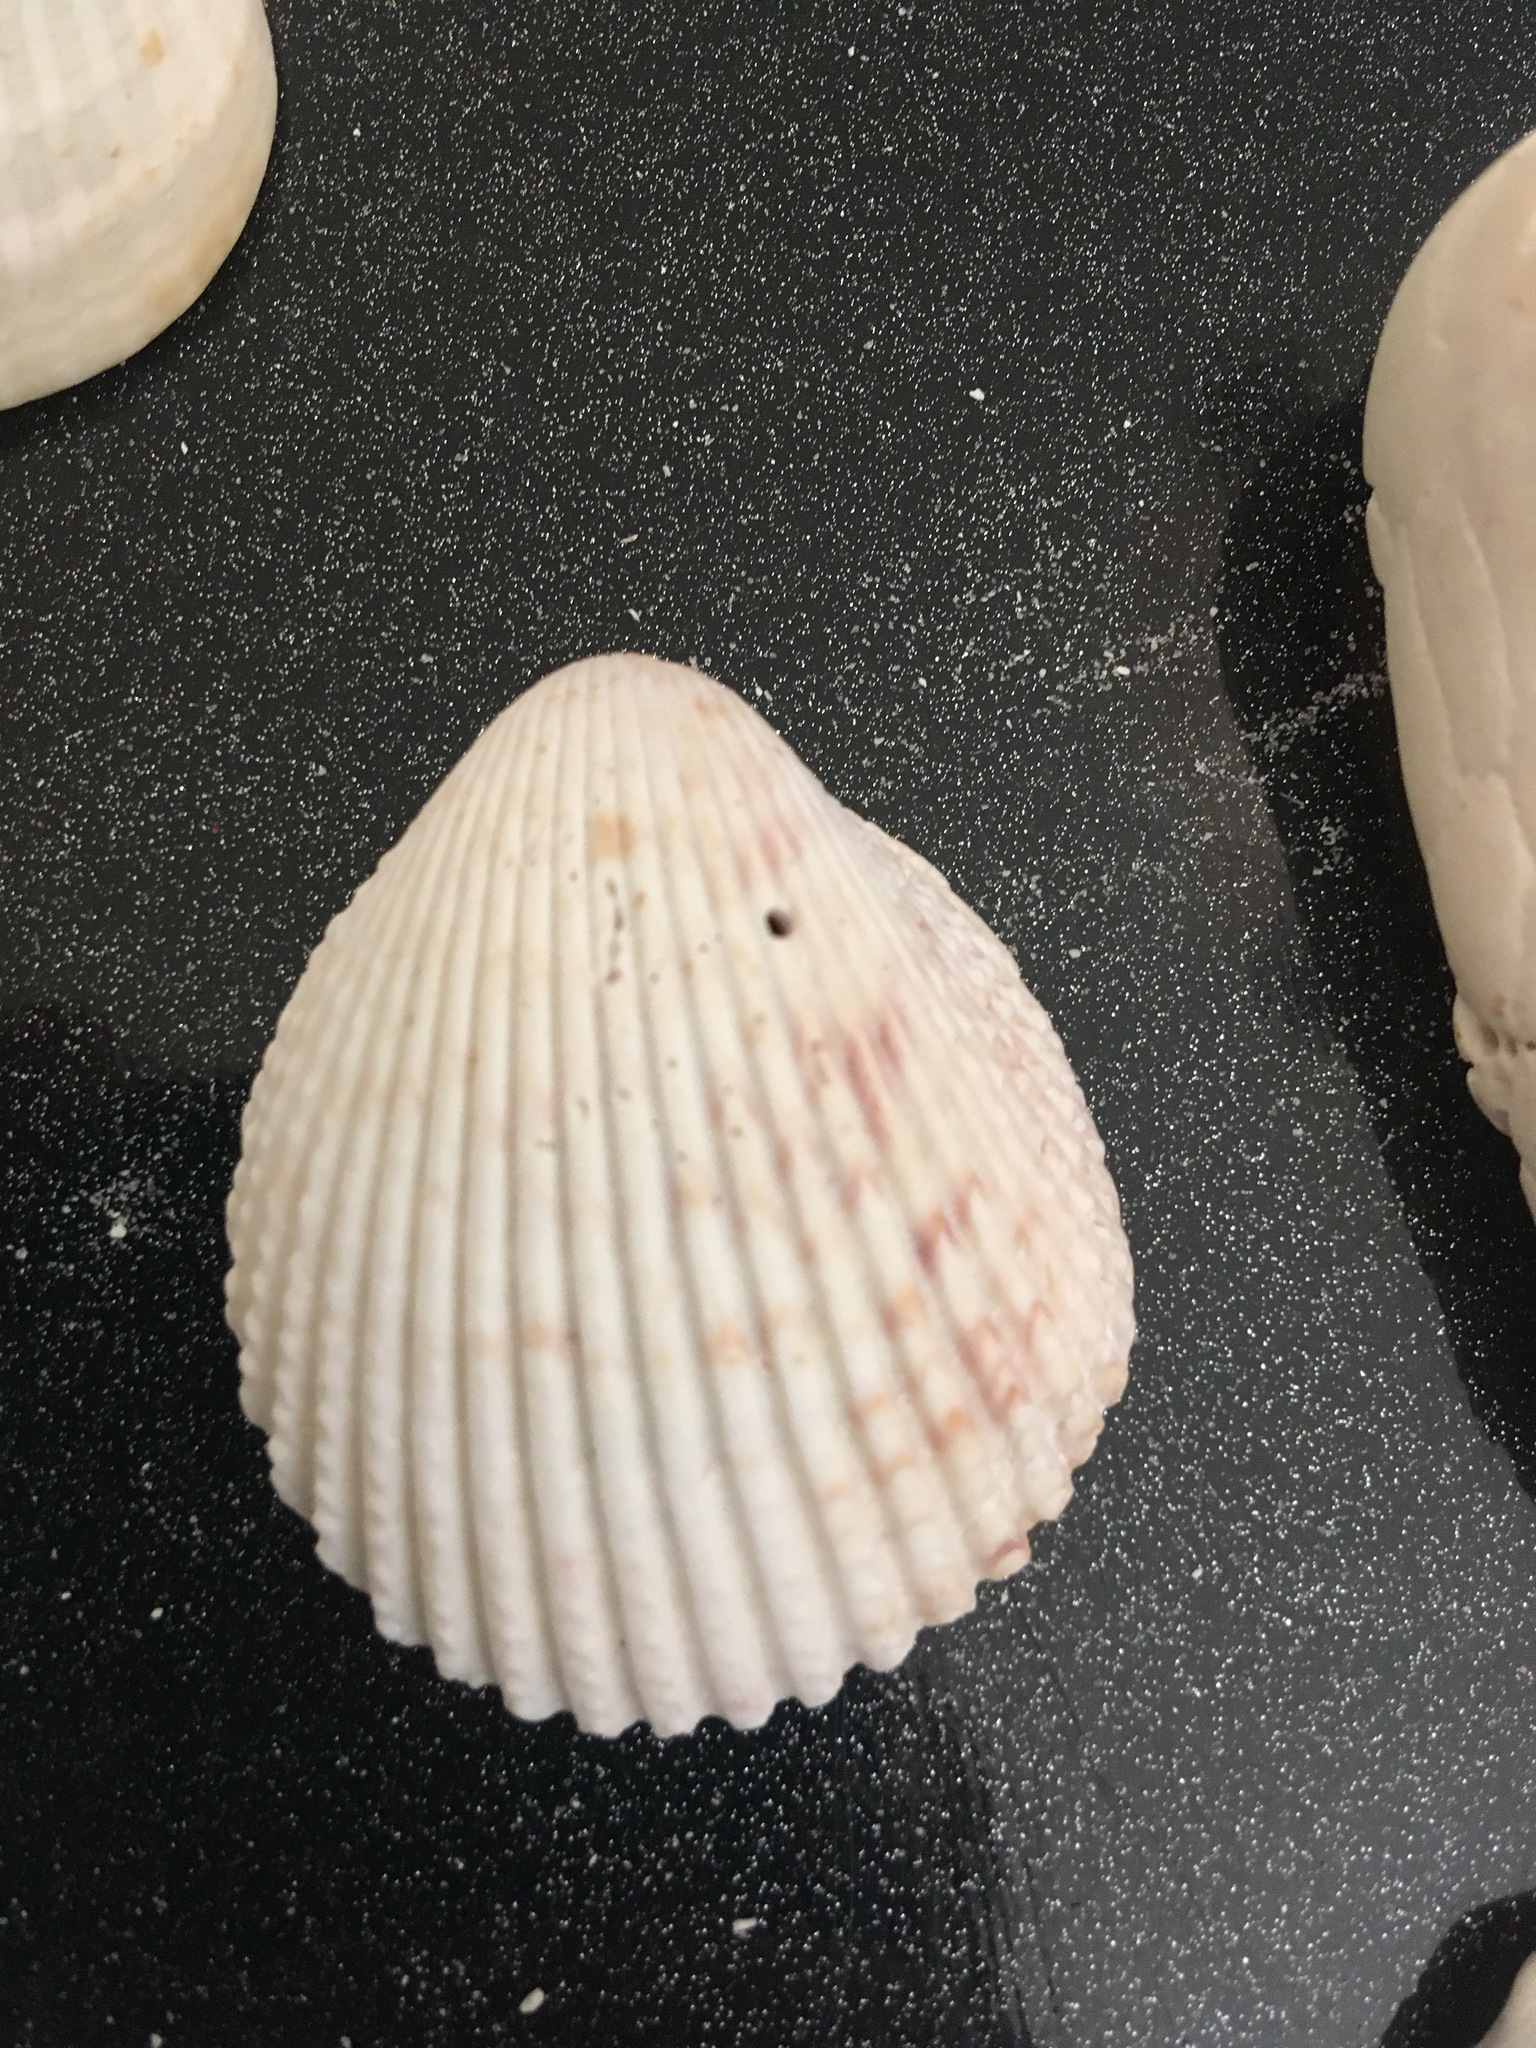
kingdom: Animalia
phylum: Mollusca
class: Bivalvia
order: Cardiida
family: Cardiidae
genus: Trachycardium
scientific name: Trachycardium egmontianum
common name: Florida pricklycockle
